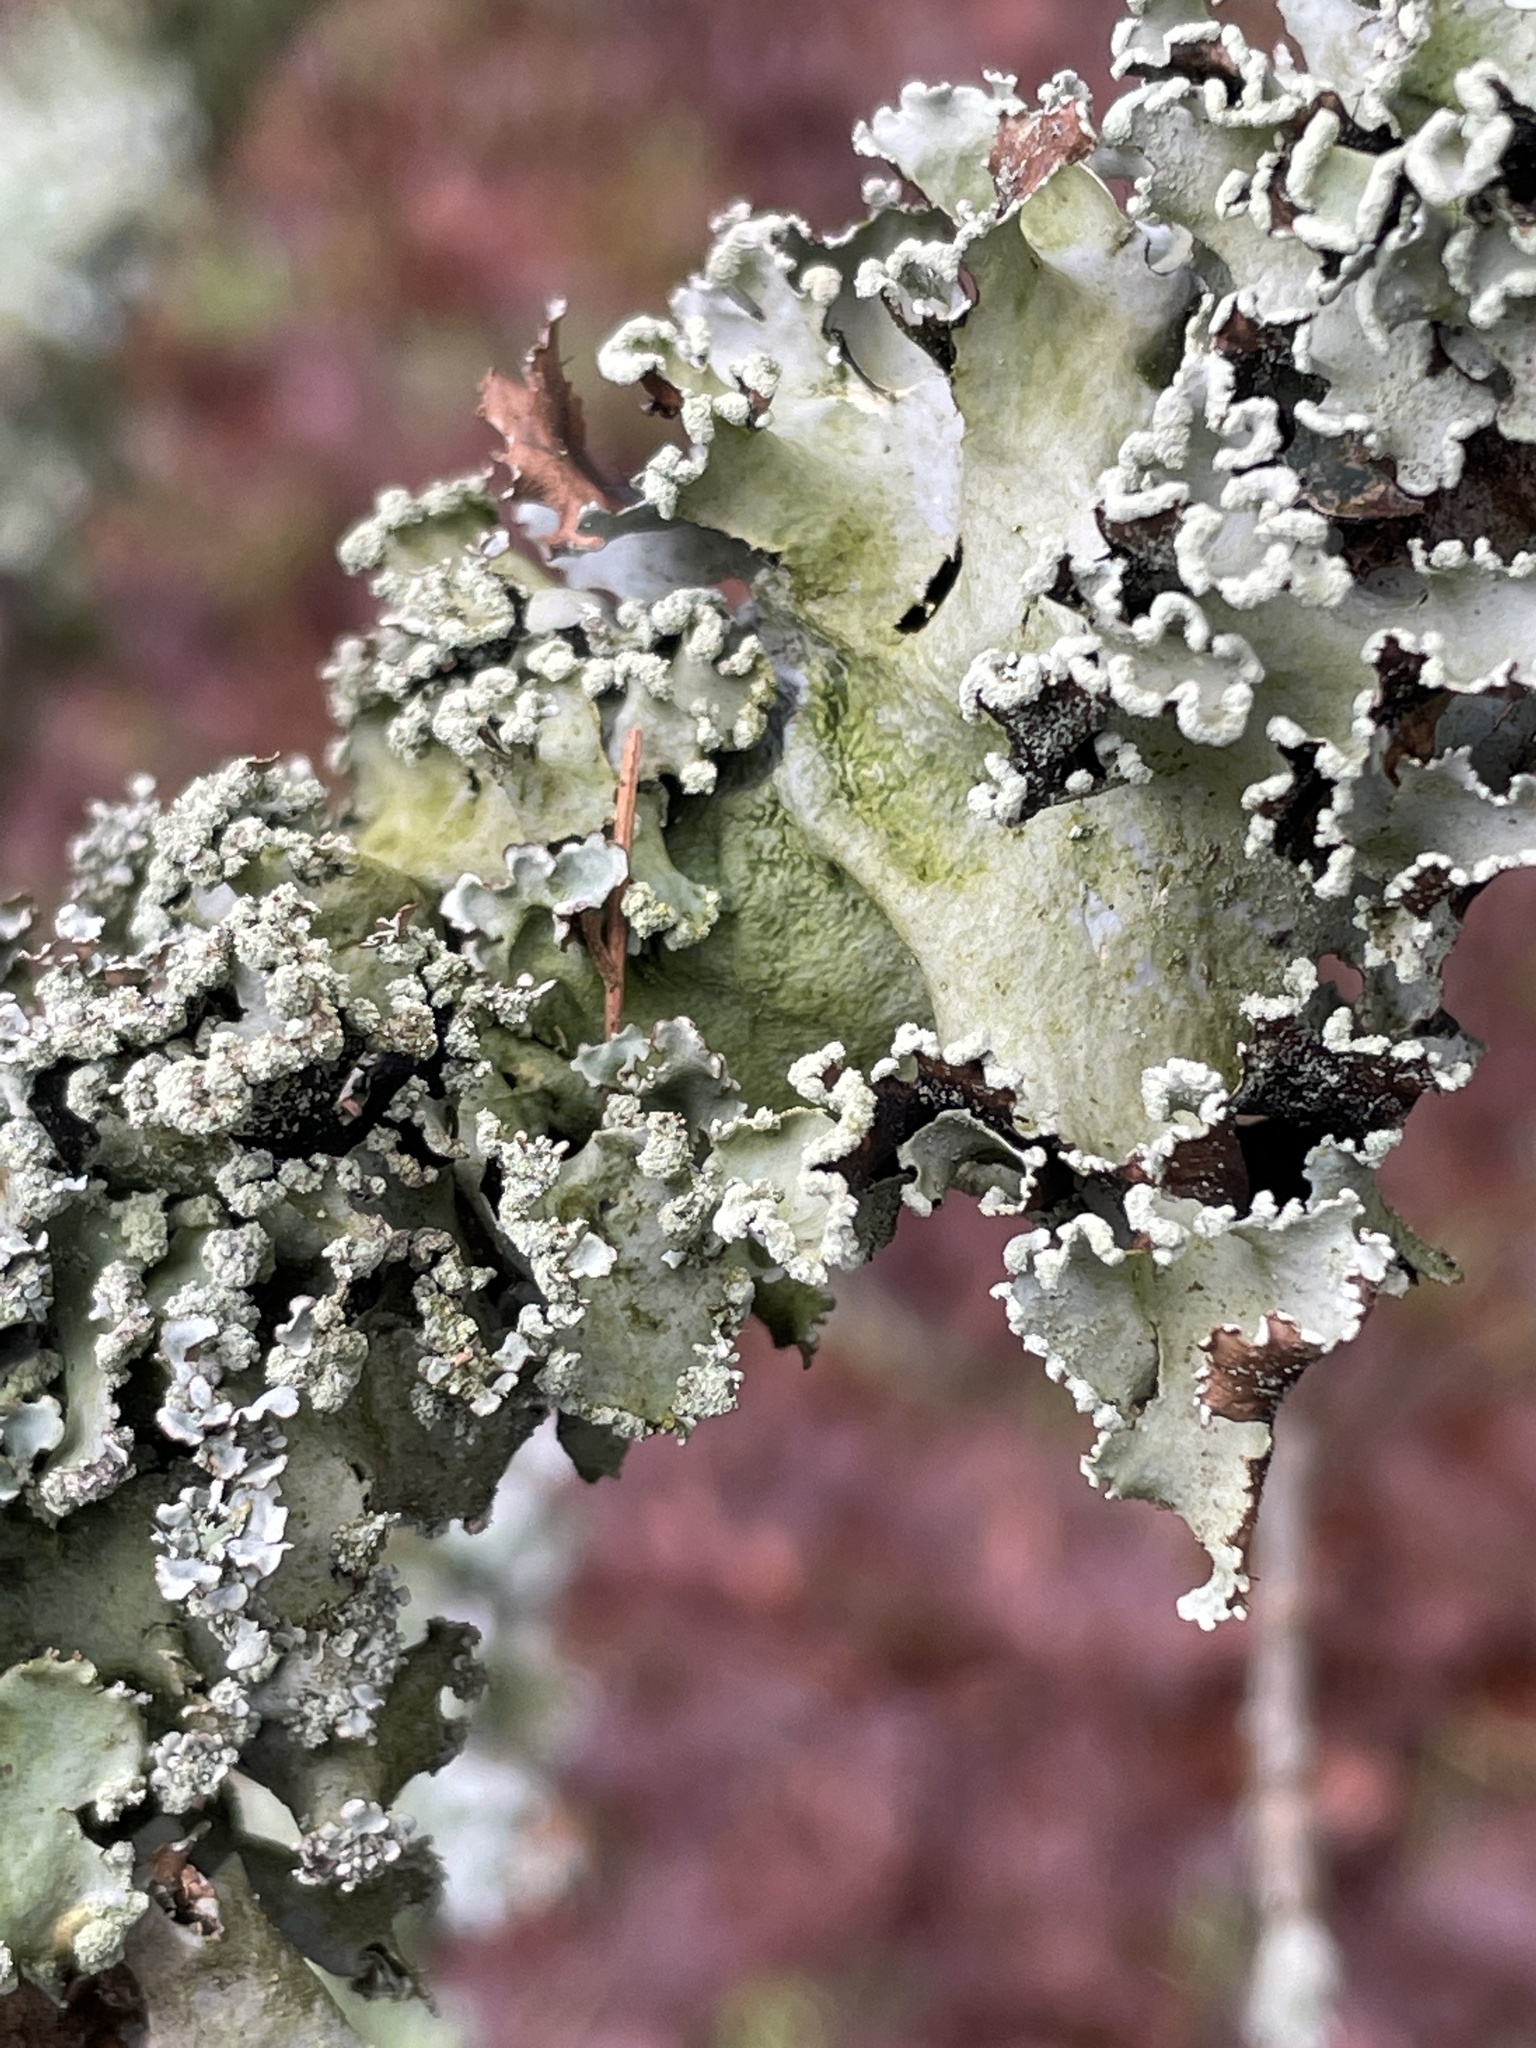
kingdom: Fungi
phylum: Ascomycota
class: Lecanoromycetes
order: Lecanorales
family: Parmeliaceae
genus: Parmotrema
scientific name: Parmotrema perlatum
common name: Black stone flower
